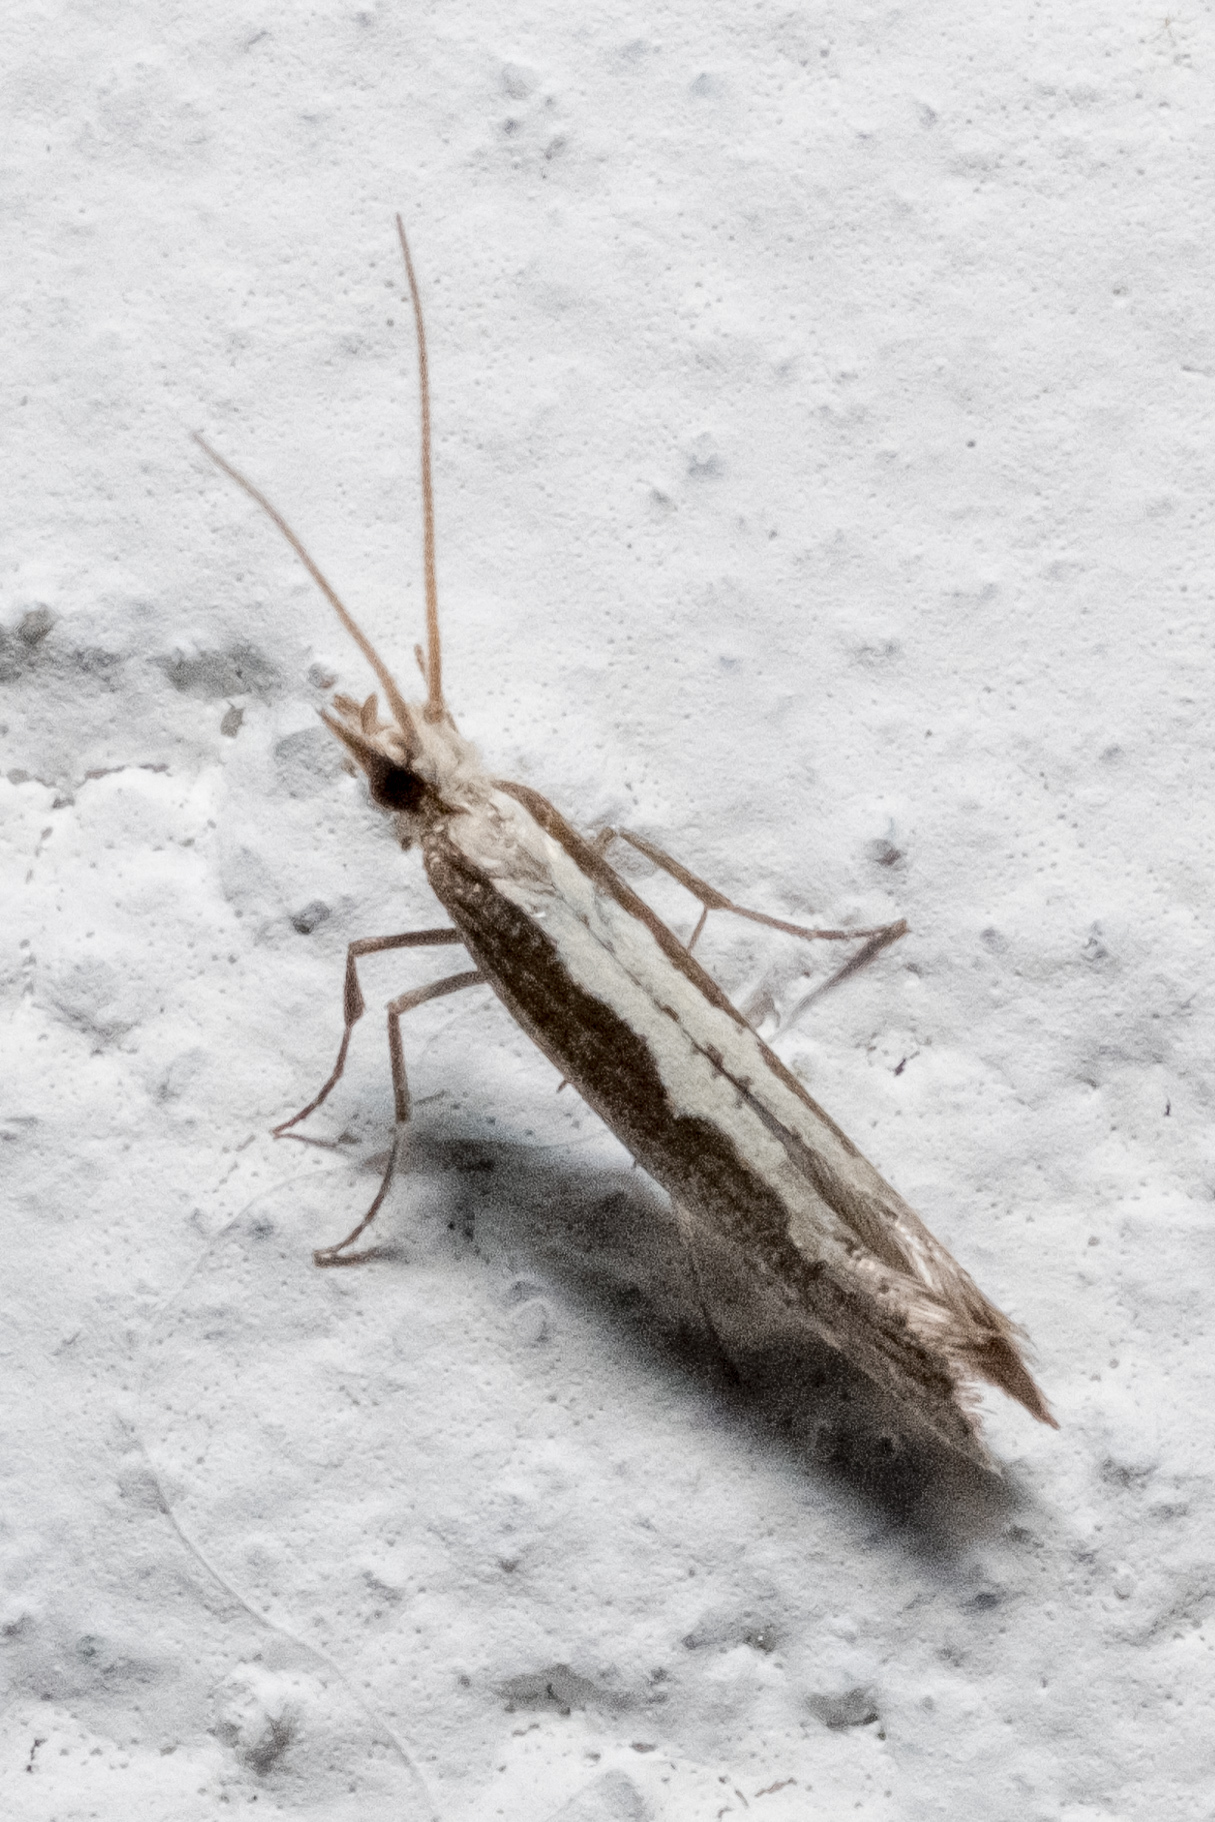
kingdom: Animalia
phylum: Arthropoda
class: Insecta
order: Lepidoptera
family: Plutellidae
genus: Plutella
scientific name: Plutella xylostella
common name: Diamond-back moth
